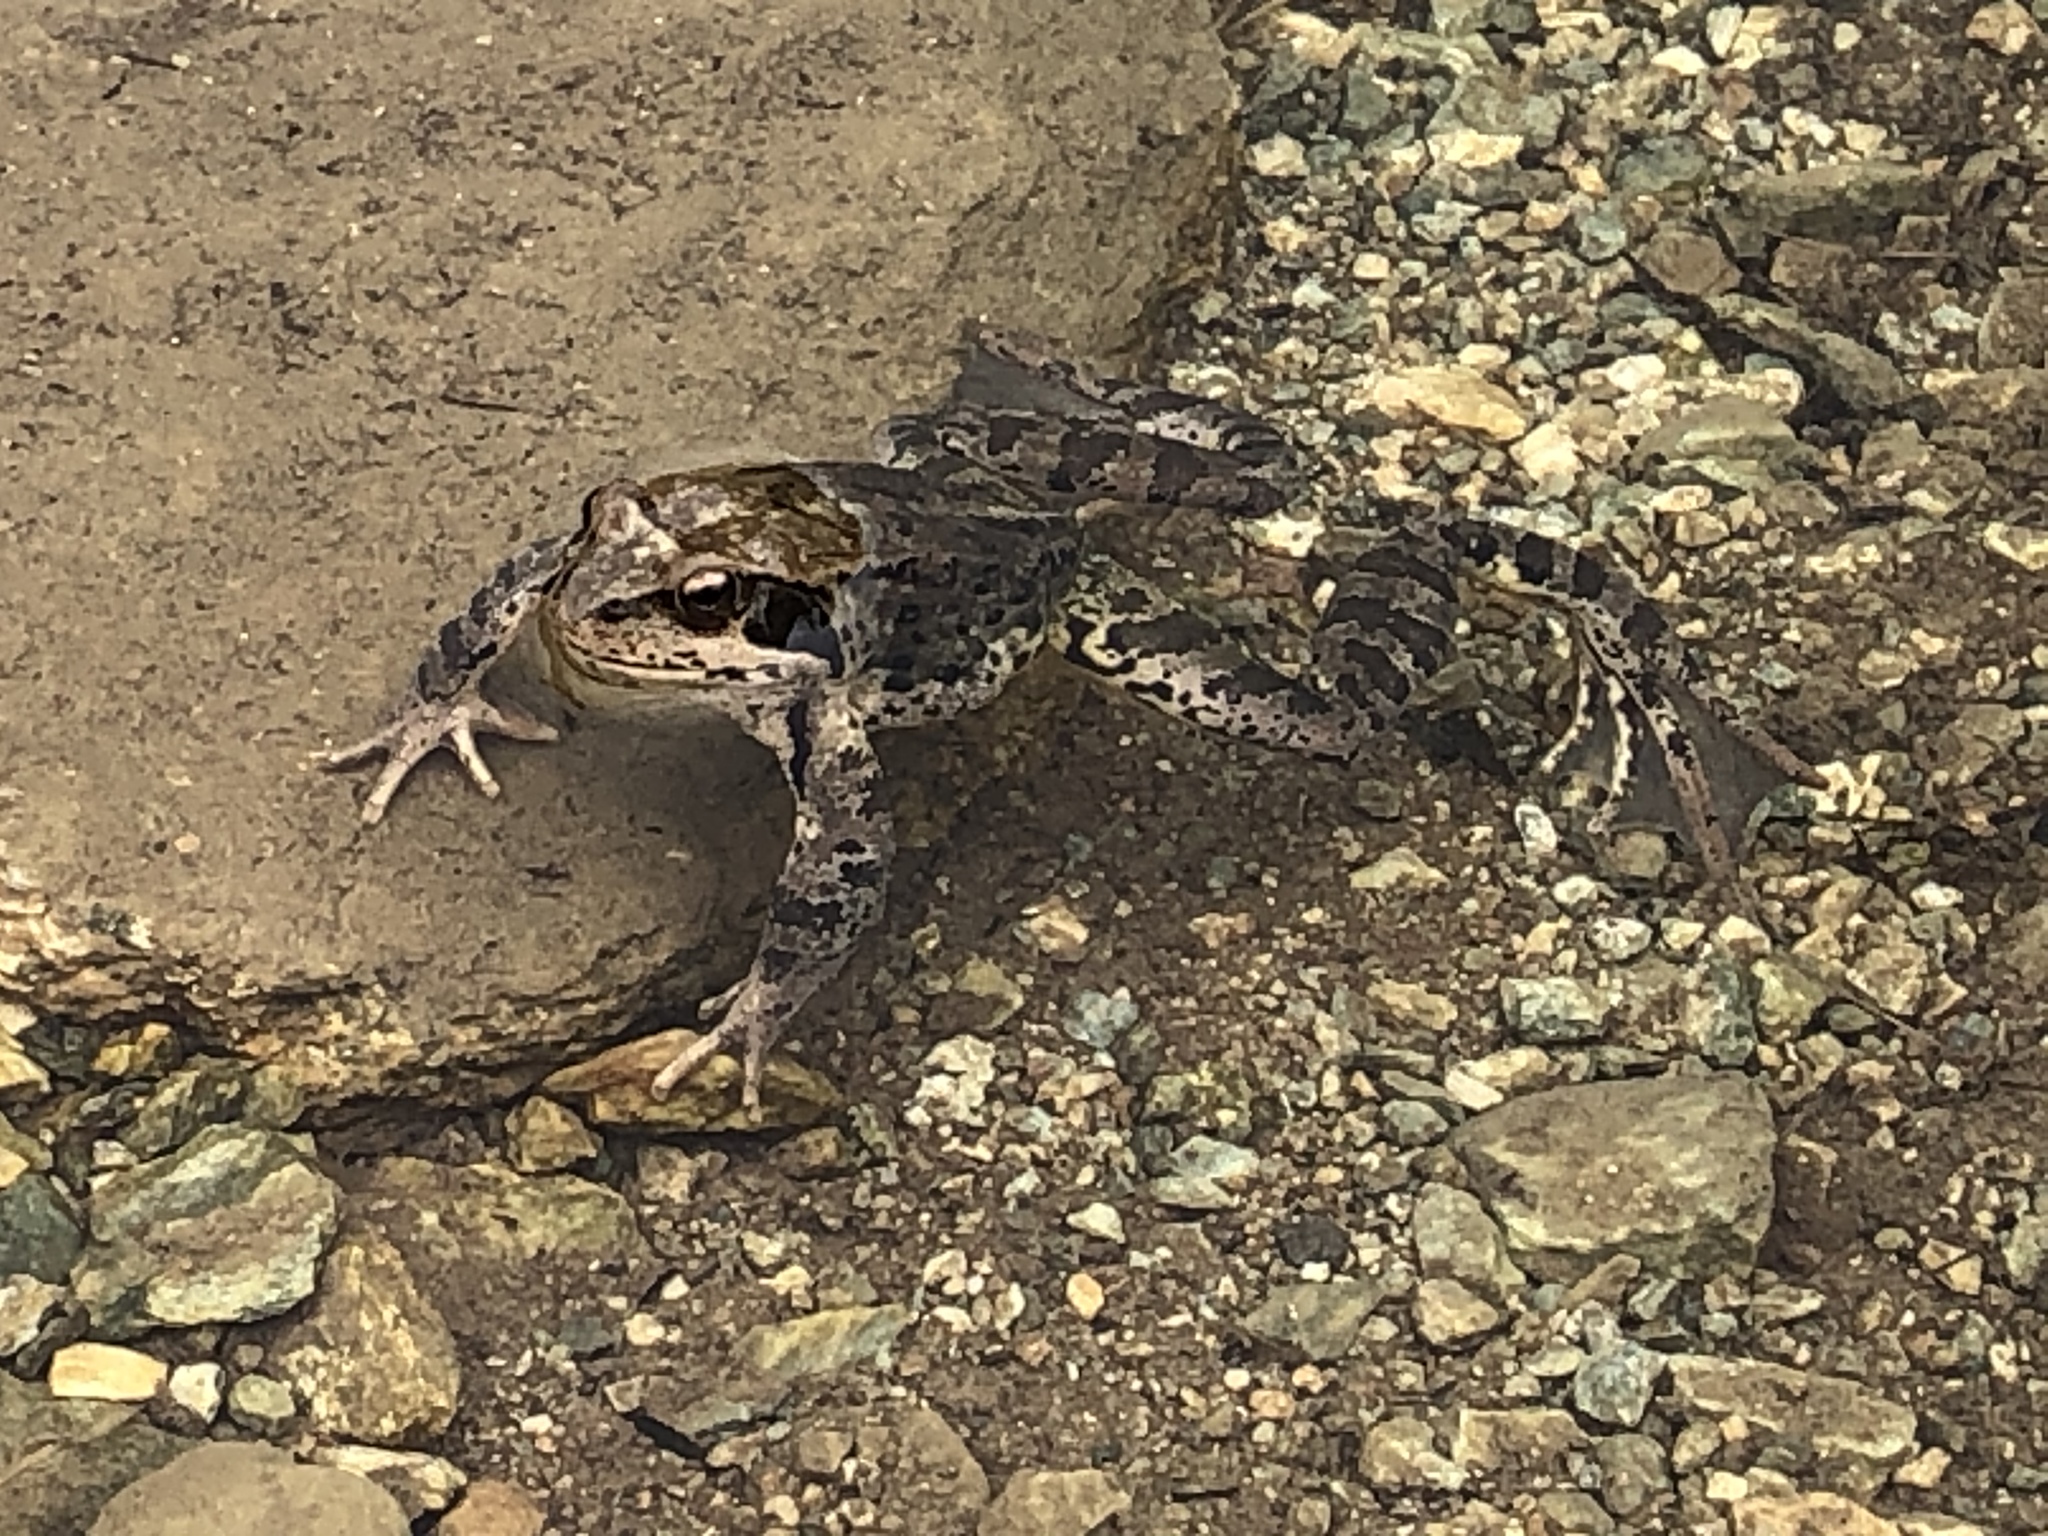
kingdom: Animalia
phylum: Chordata
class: Amphibia
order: Anura
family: Ranidae
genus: Rana
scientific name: Rana temporaria
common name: Common frog
